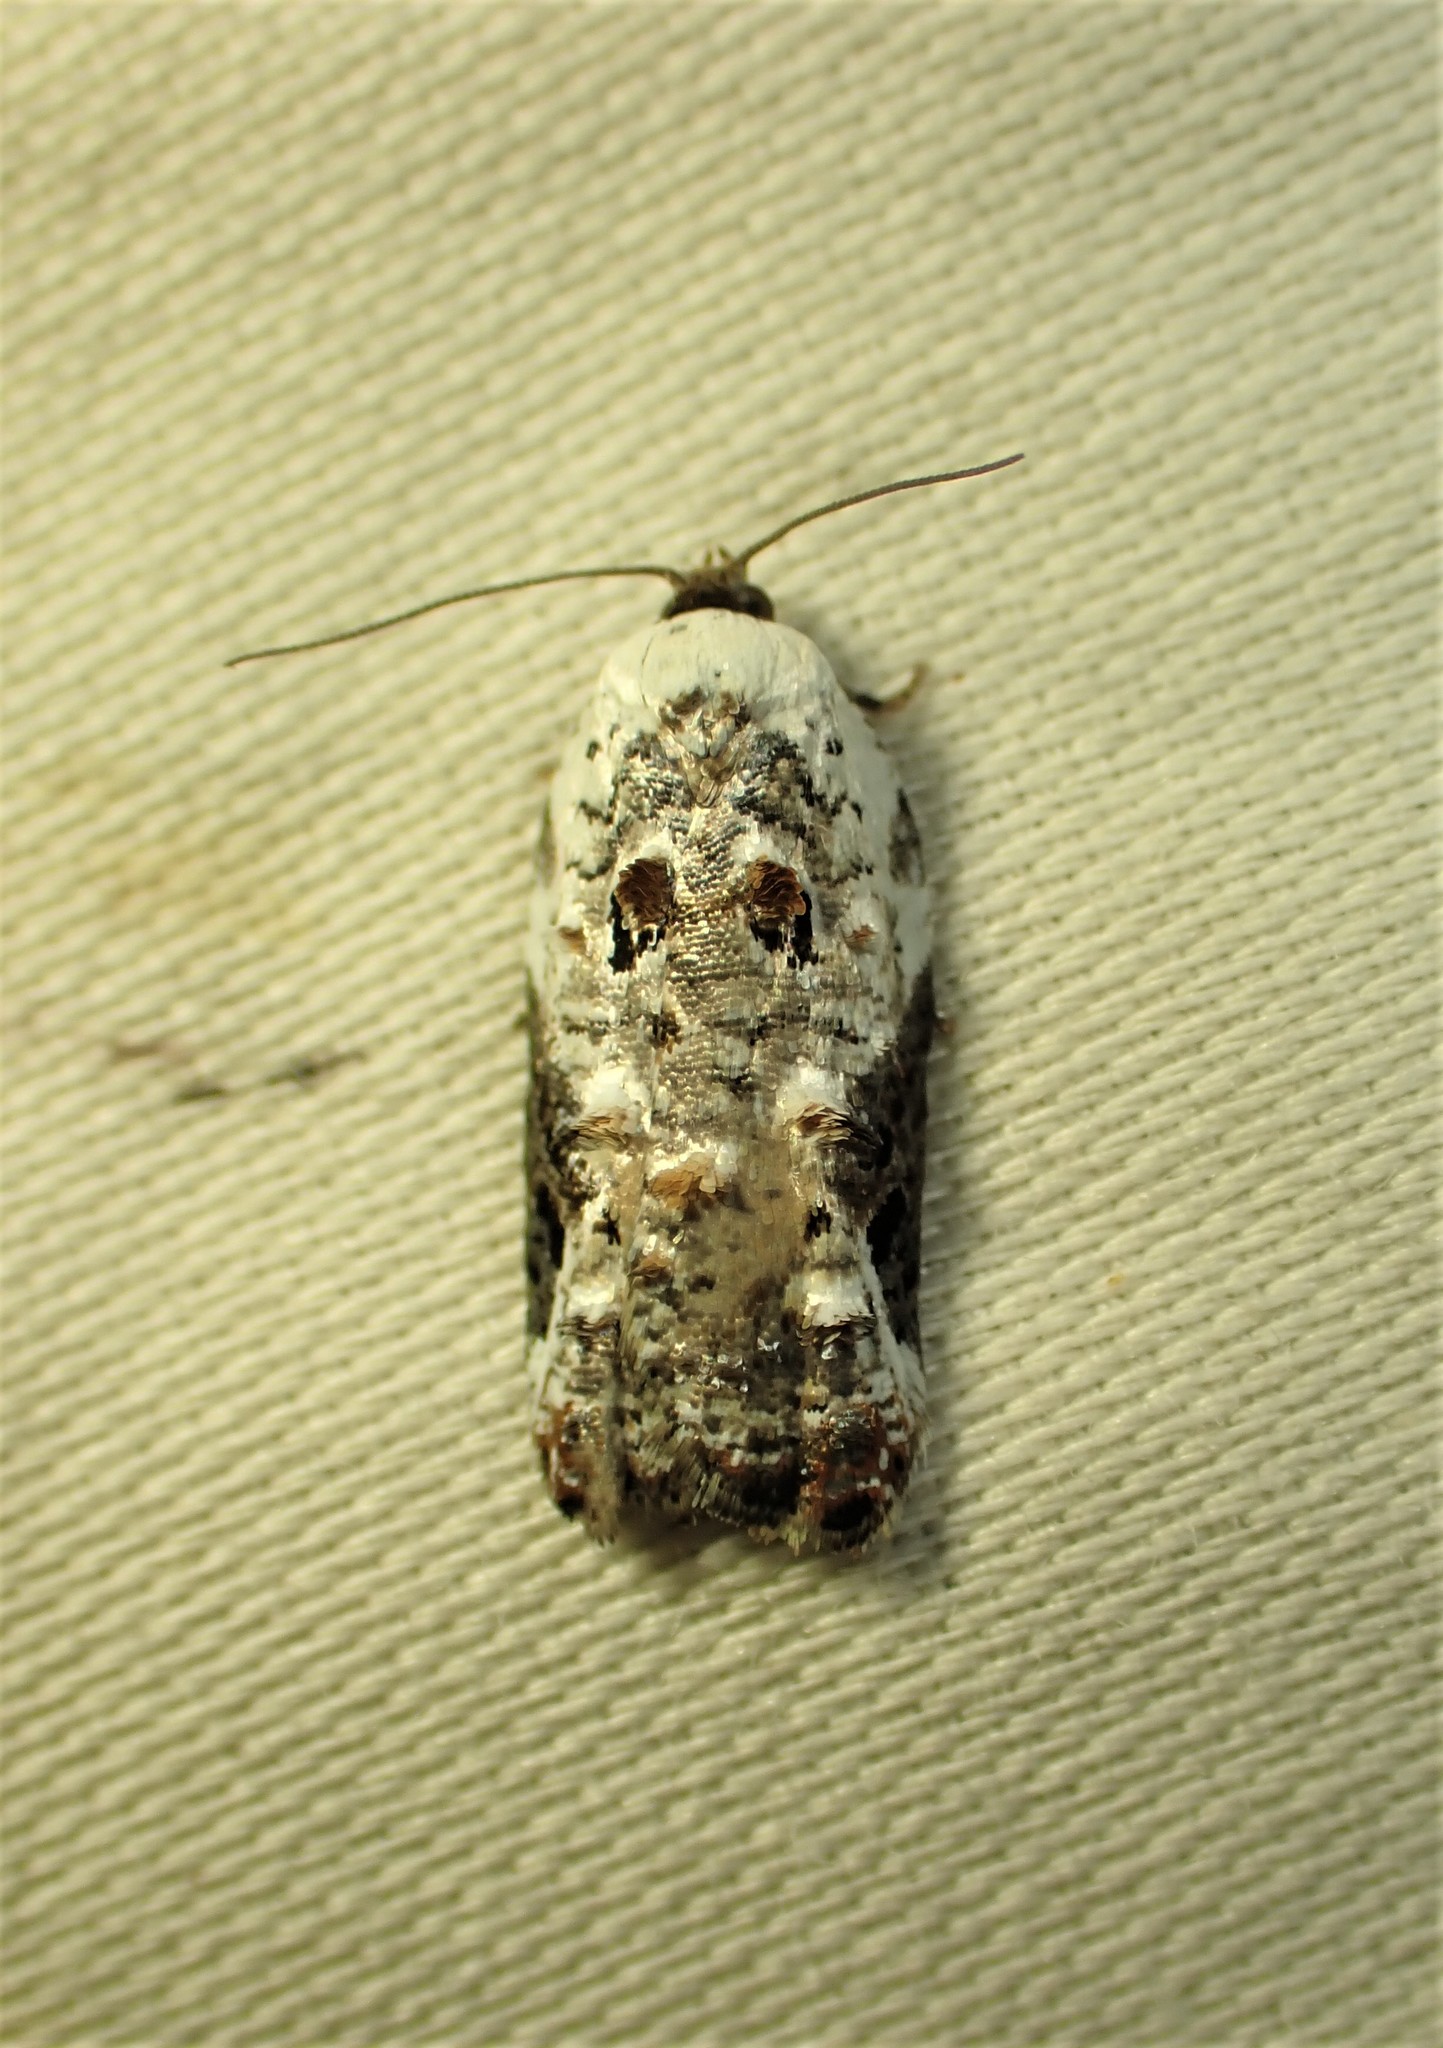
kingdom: Animalia
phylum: Arthropoda
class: Insecta
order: Lepidoptera
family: Tortricidae
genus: Acleris
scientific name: Acleris nivisellana
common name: Snowy-shouldered acleris moth
